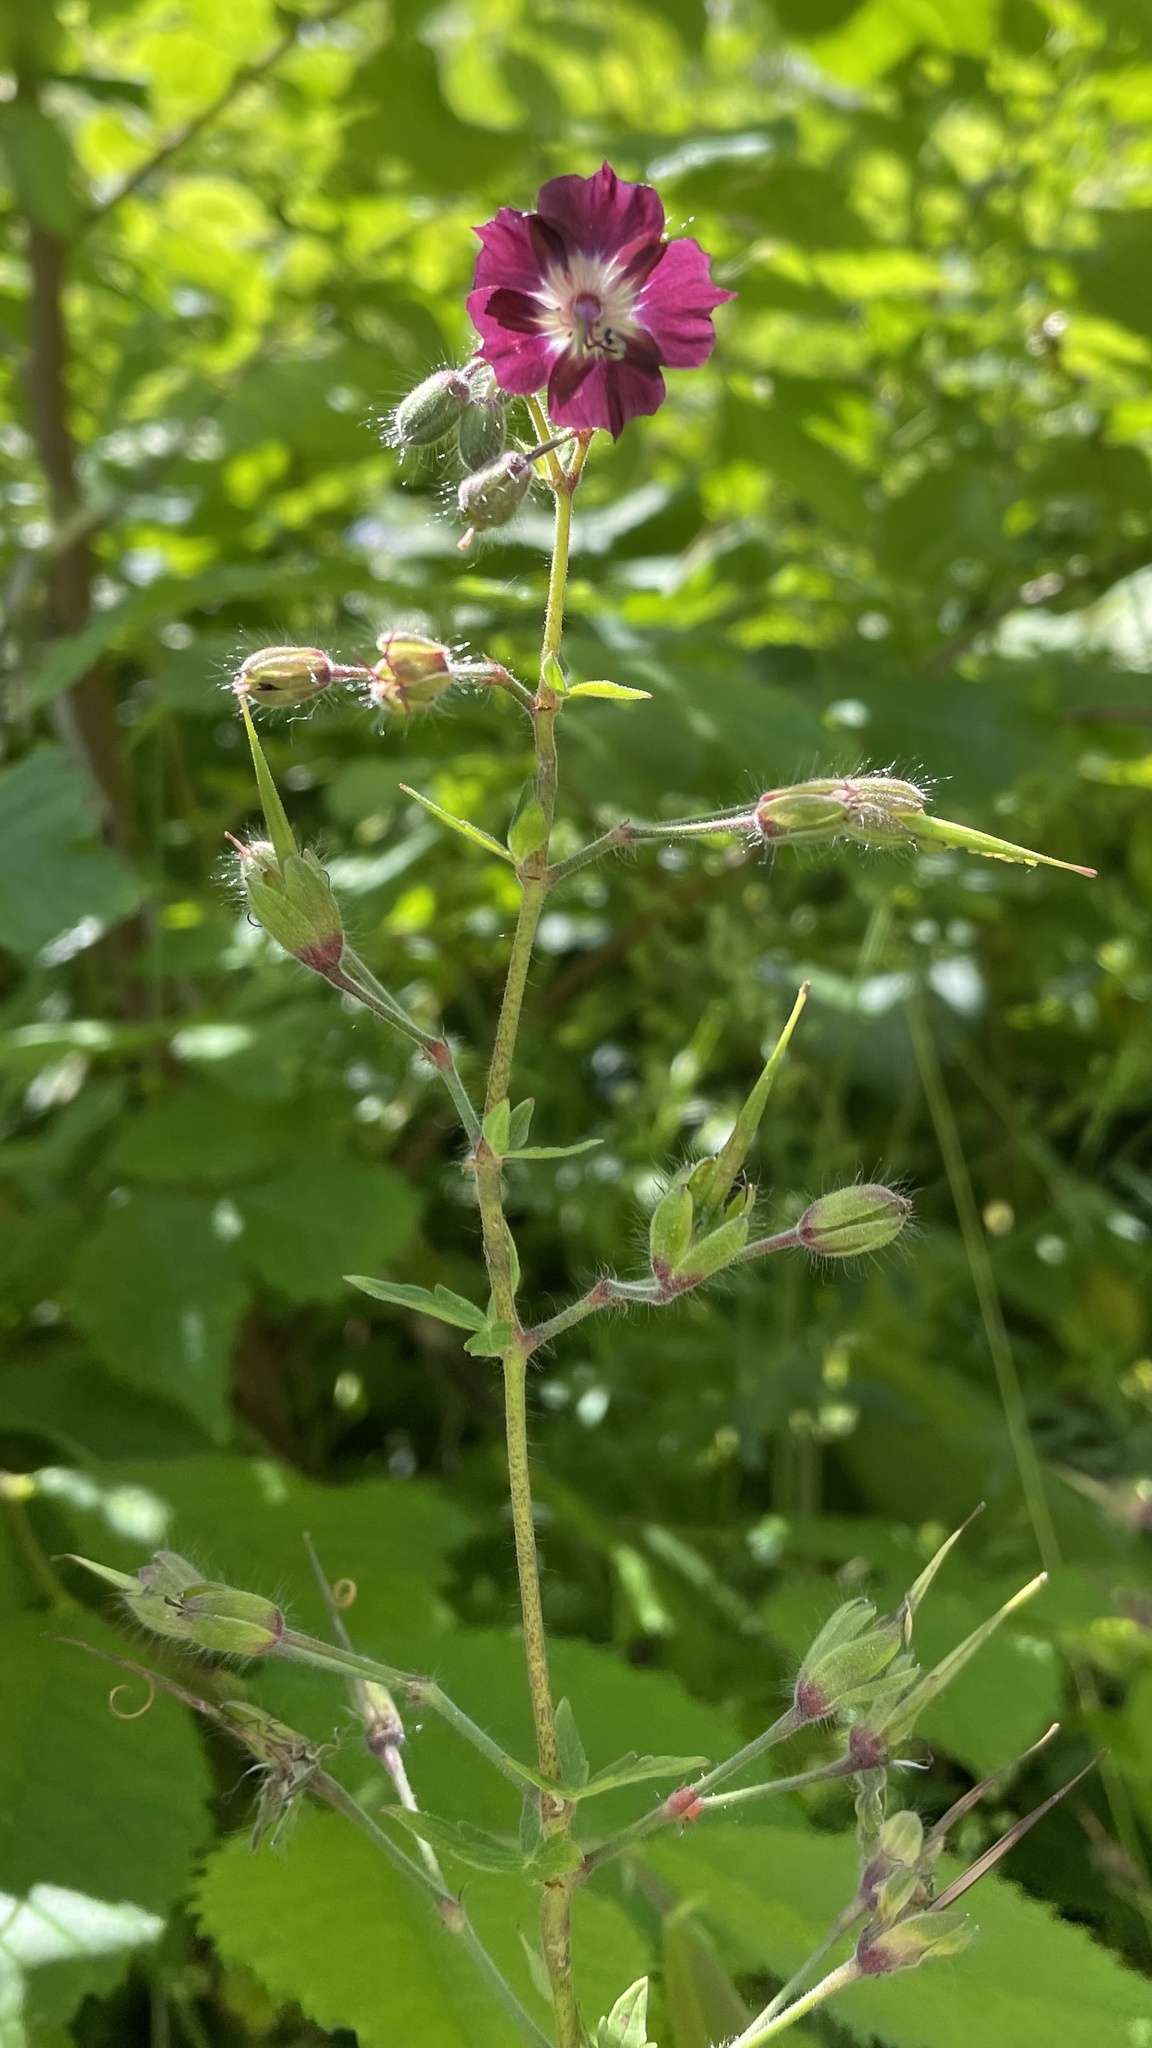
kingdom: Plantae
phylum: Tracheophyta
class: Magnoliopsida
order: Geraniales
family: Geraniaceae
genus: Geranium
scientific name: Geranium phaeum
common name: Dusky crane's-bill
